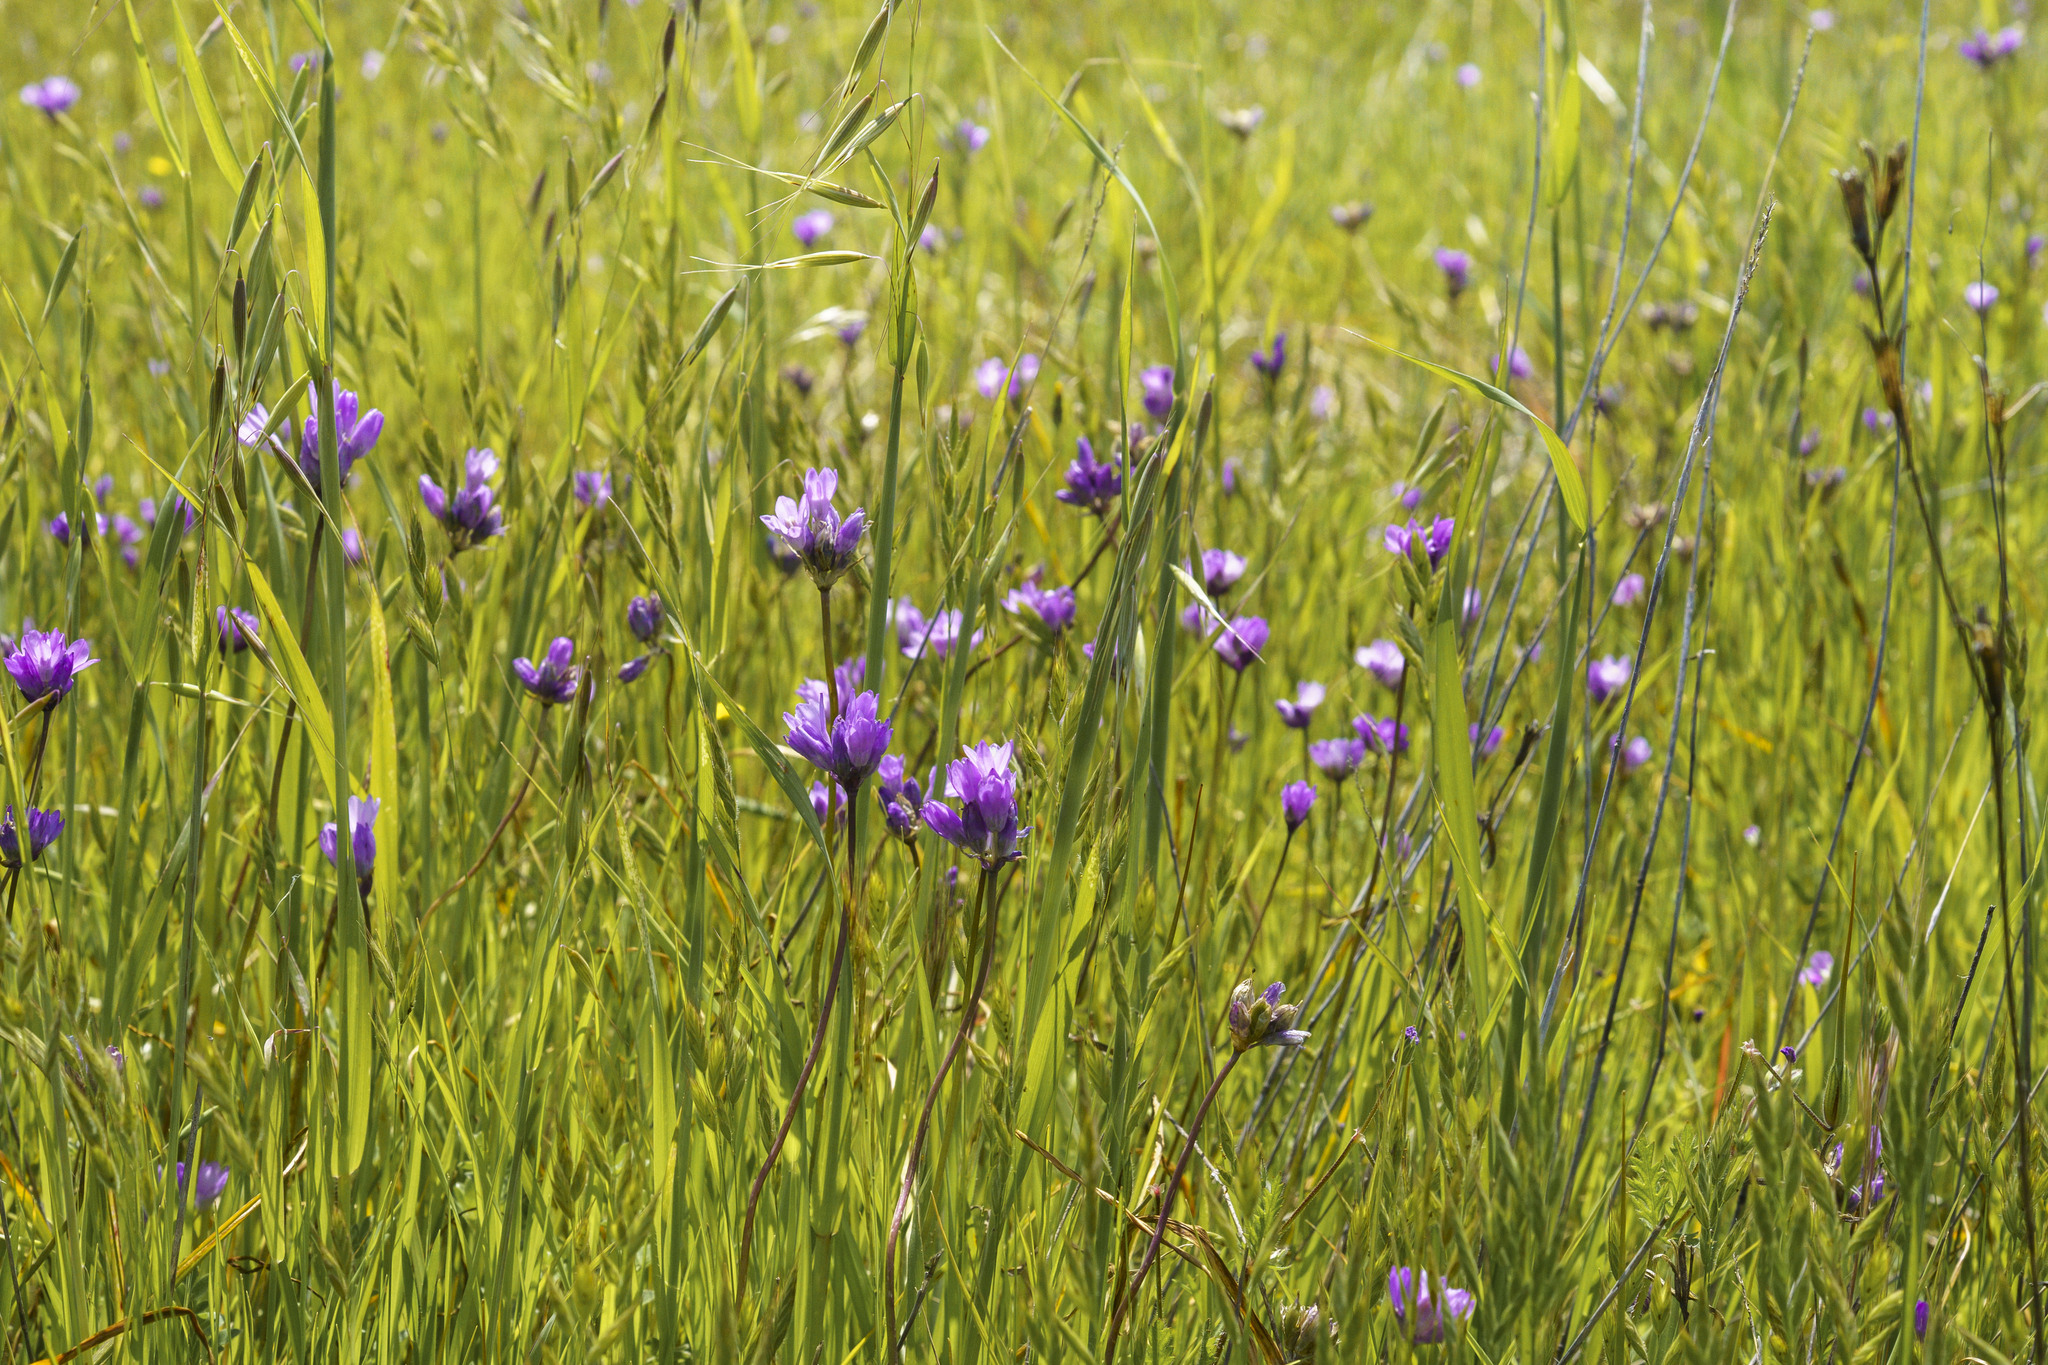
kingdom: Plantae
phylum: Tracheophyta
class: Liliopsida
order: Asparagales
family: Asparagaceae
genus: Dipterostemon
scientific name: Dipterostemon capitatus
